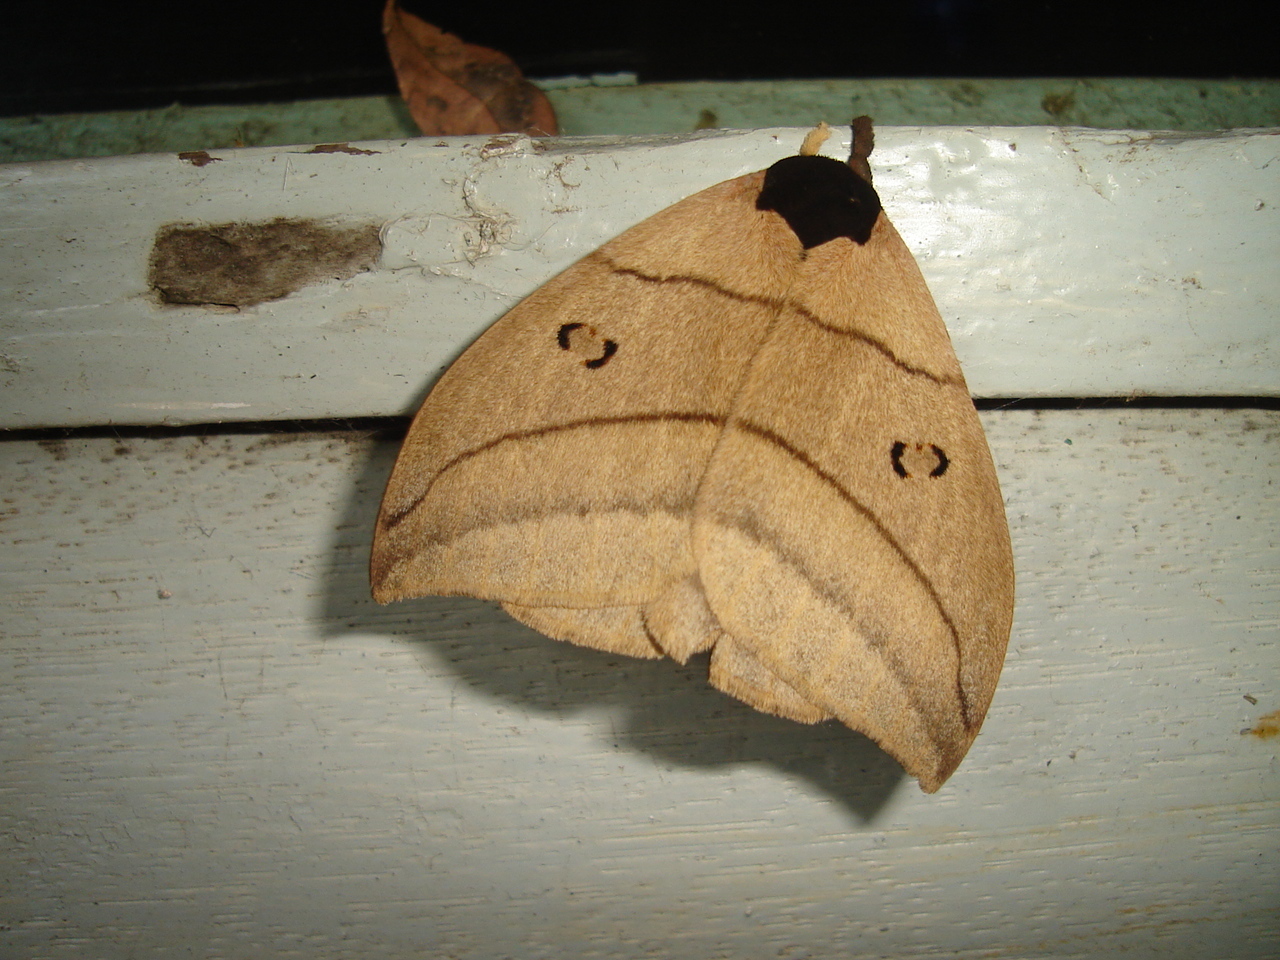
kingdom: Animalia
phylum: Arthropoda
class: Insecta
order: Lepidoptera
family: Saturniidae
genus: Automeris
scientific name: Automeris curvilinea
